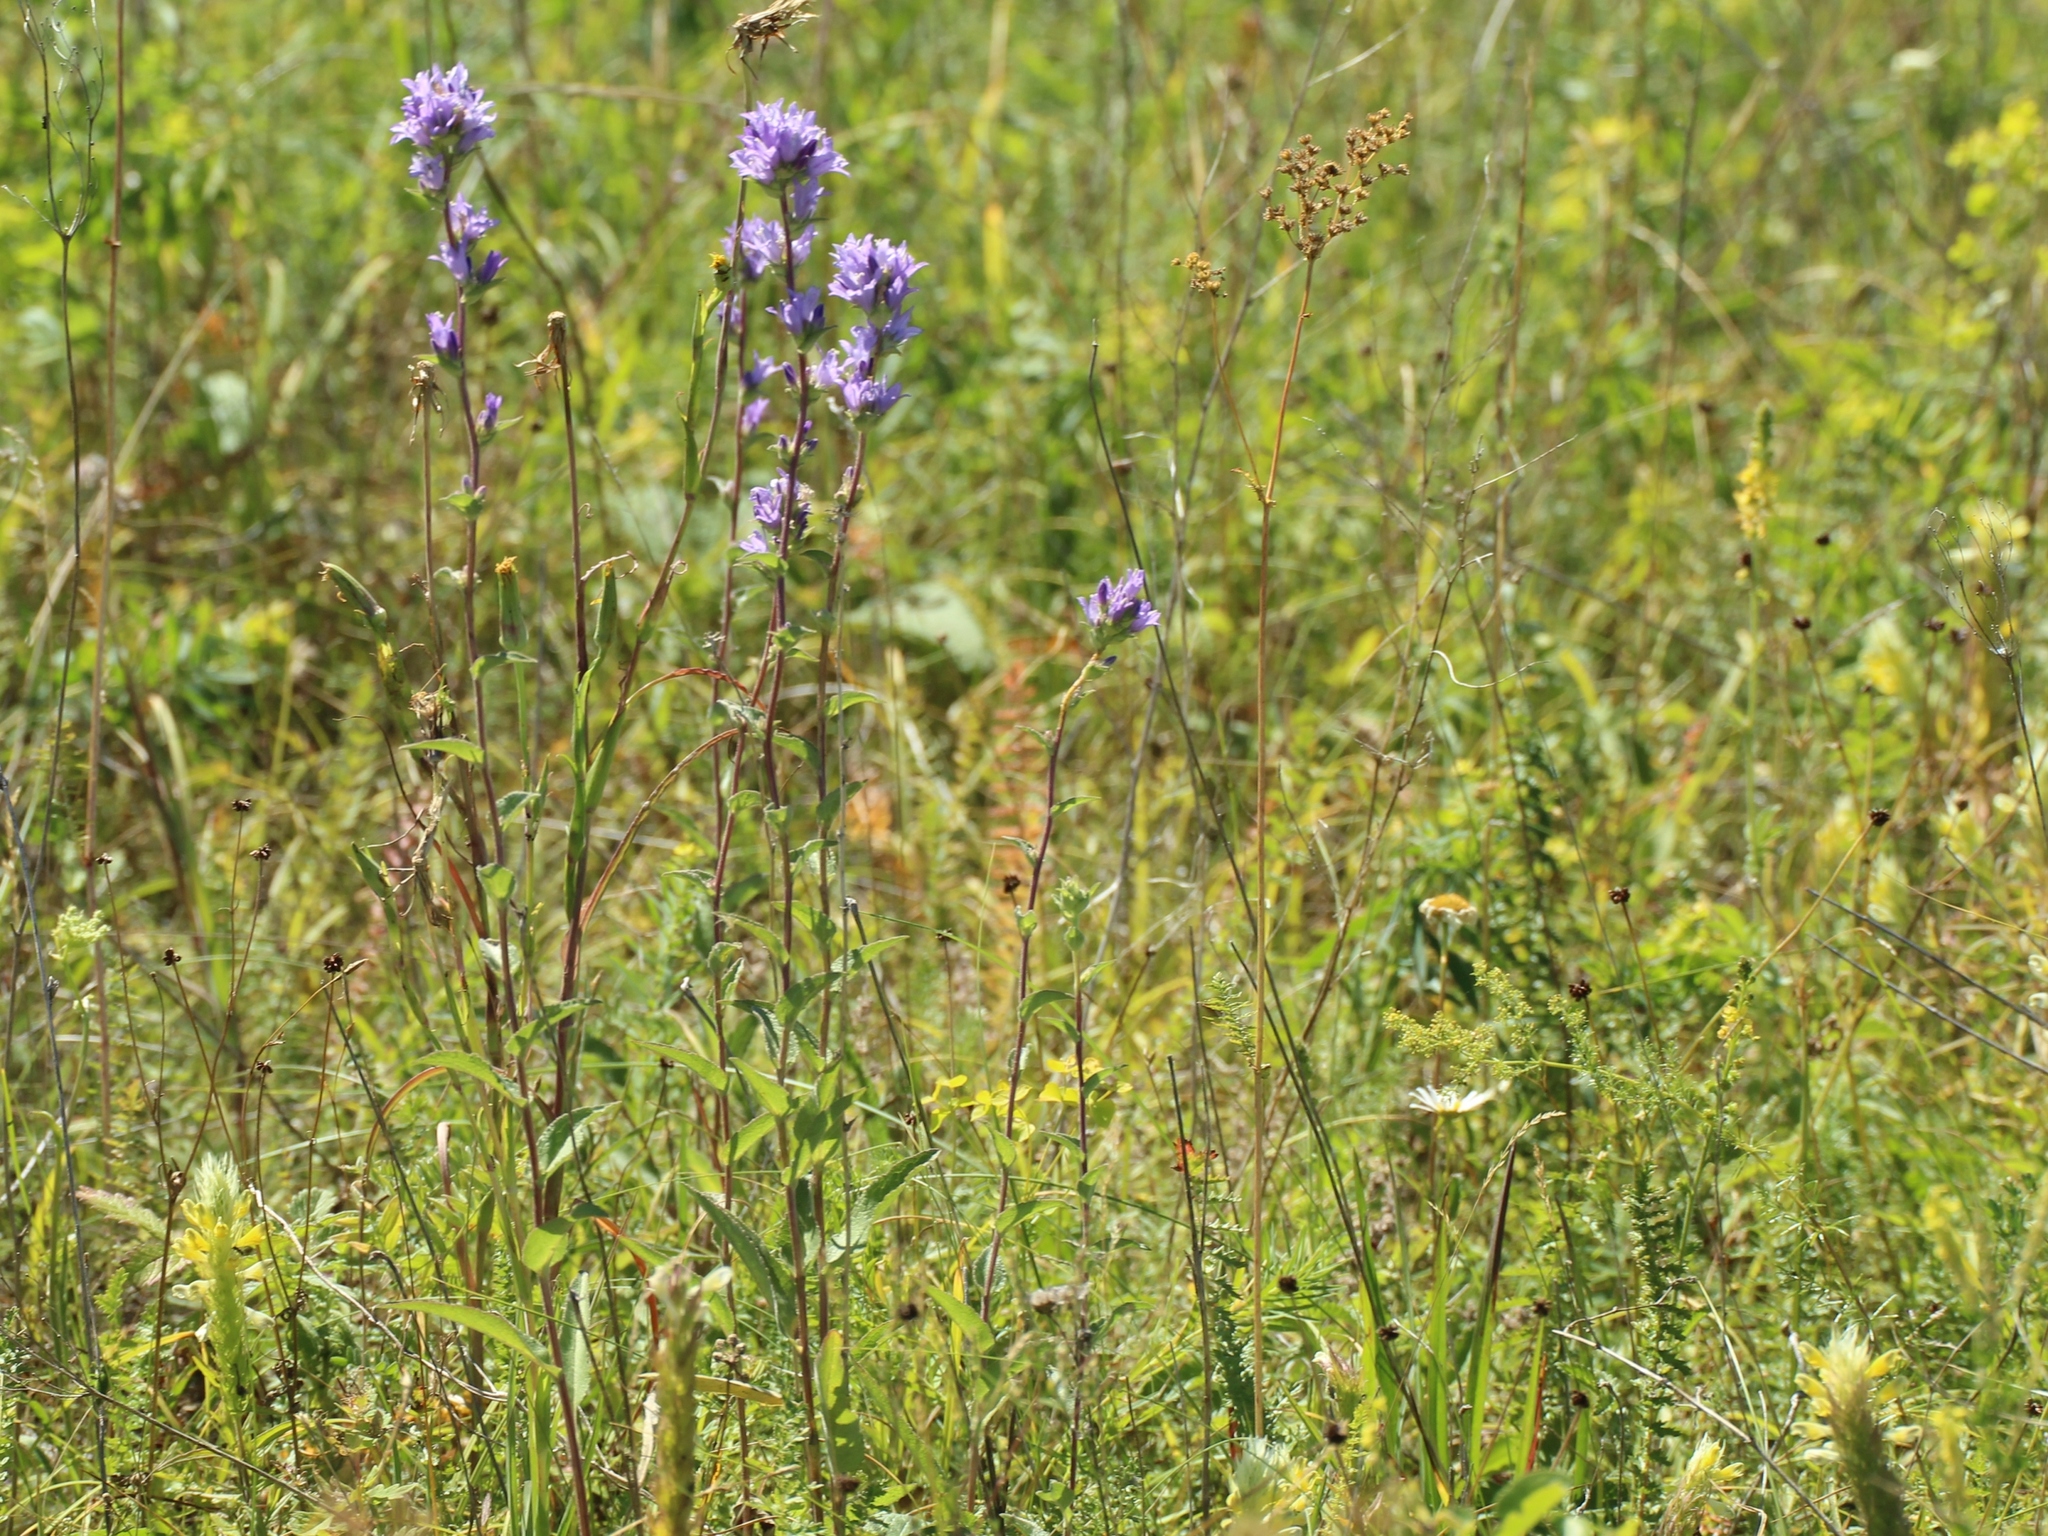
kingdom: Plantae
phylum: Tracheophyta
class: Magnoliopsida
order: Asterales
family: Campanulaceae
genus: Campanula
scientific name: Campanula glomerata
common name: Clustered bellflower
